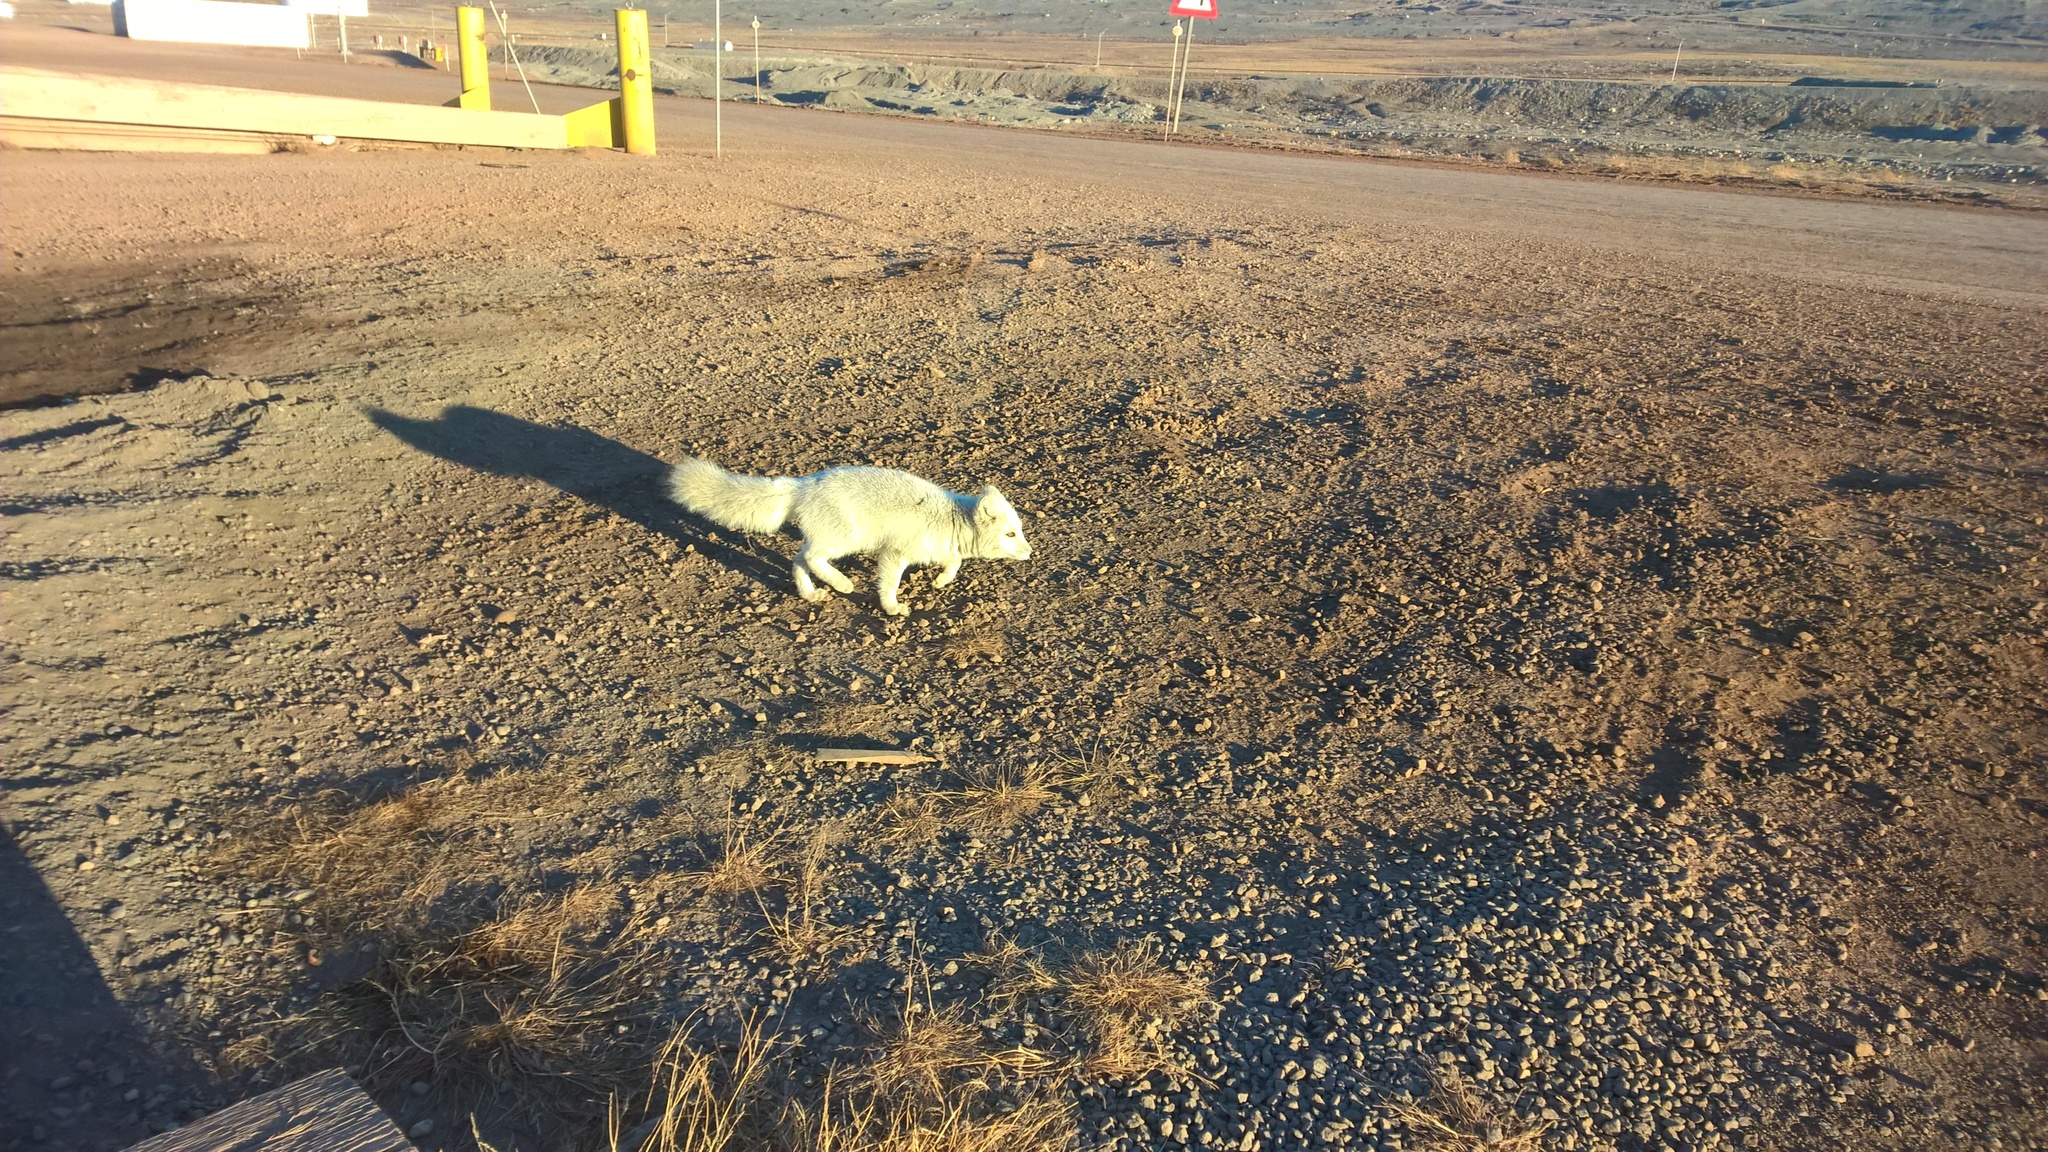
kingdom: Animalia
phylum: Chordata
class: Mammalia
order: Carnivora
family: Canidae
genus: Vulpes
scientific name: Vulpes lagopus
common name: Arctic fox
